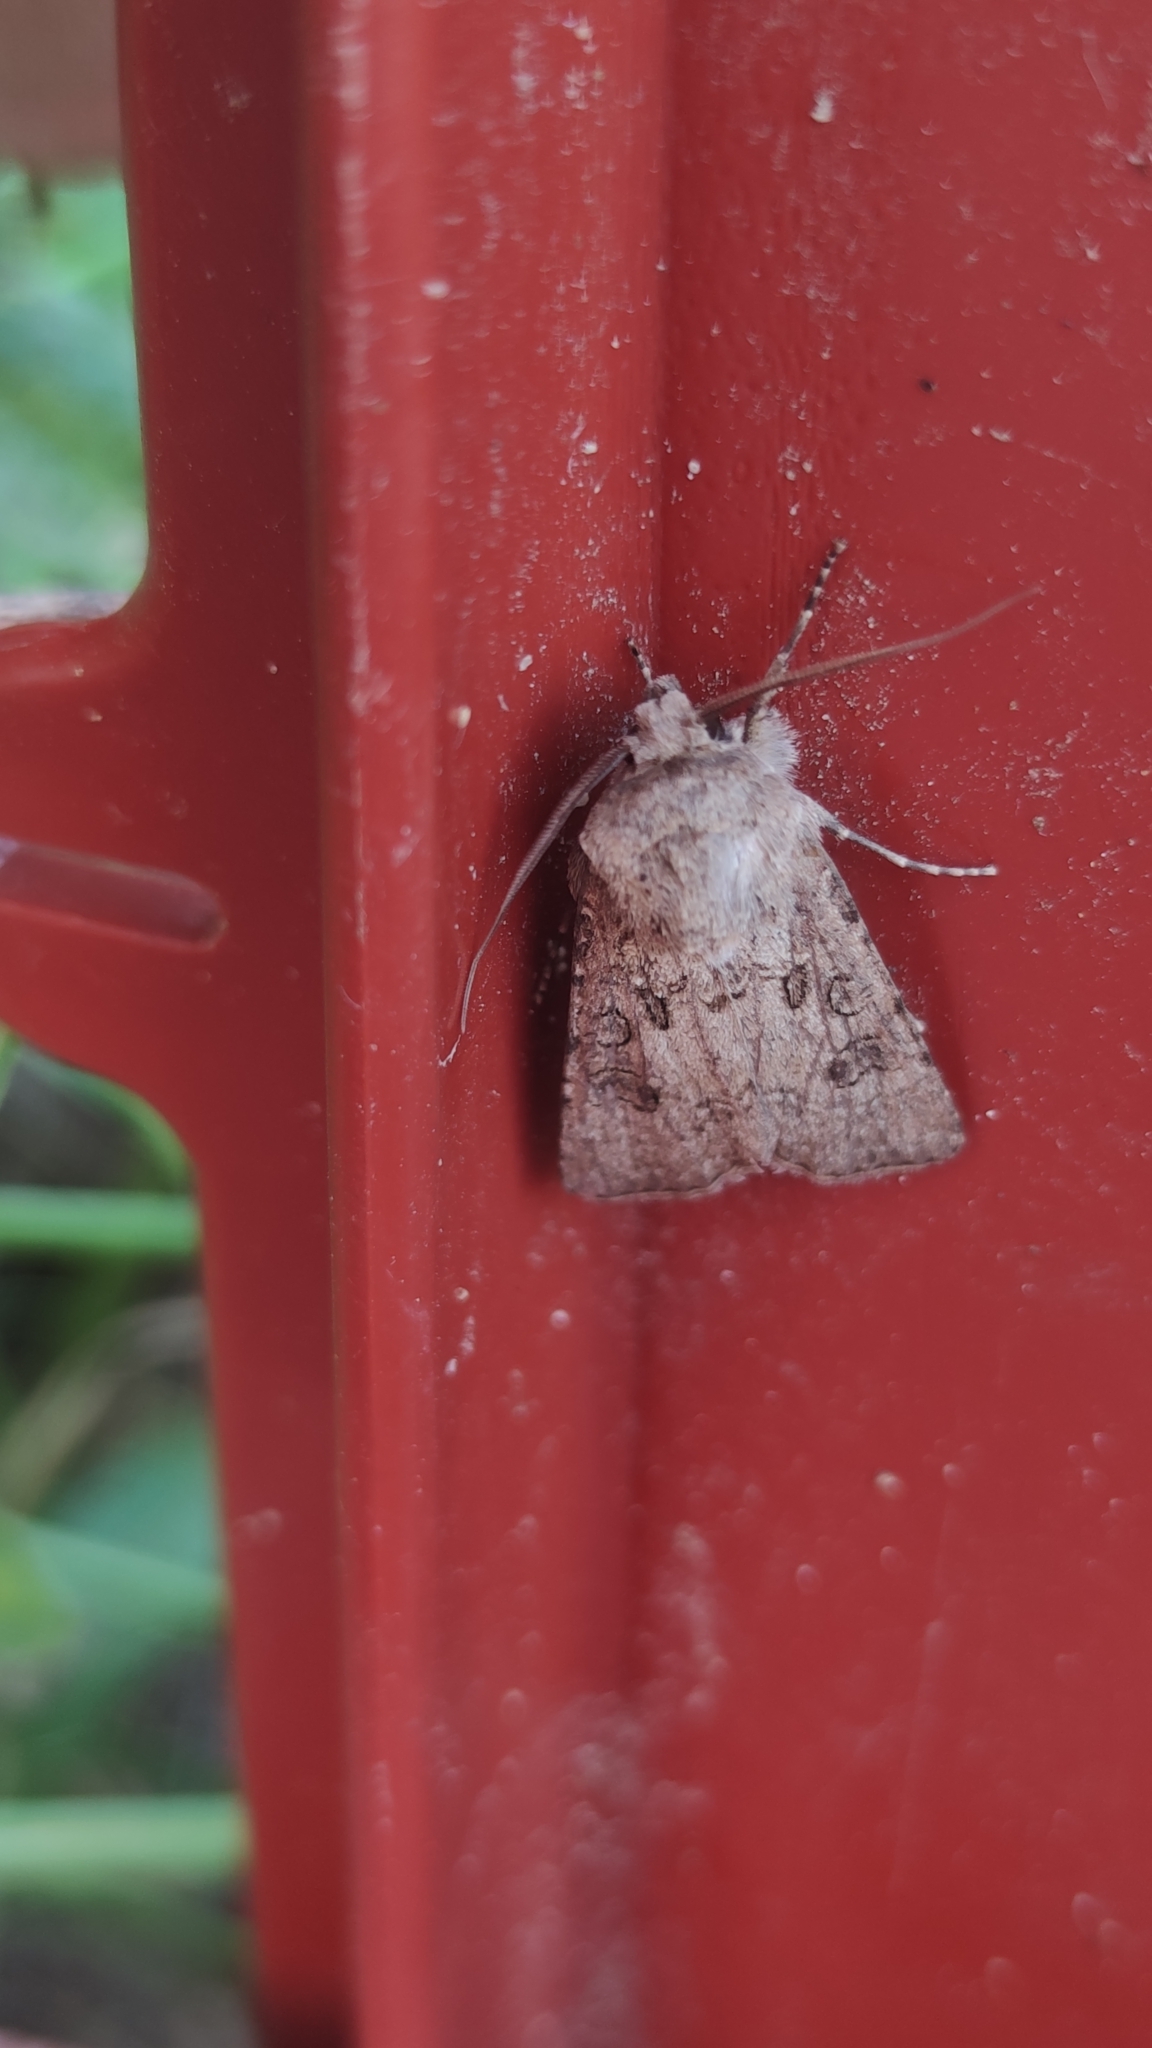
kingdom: Animalia
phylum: Arthropoda
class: Insecta
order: Lepidoptera
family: Noctuidae
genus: Agrotis
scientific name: Agrotis segetum
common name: Turnip moth
